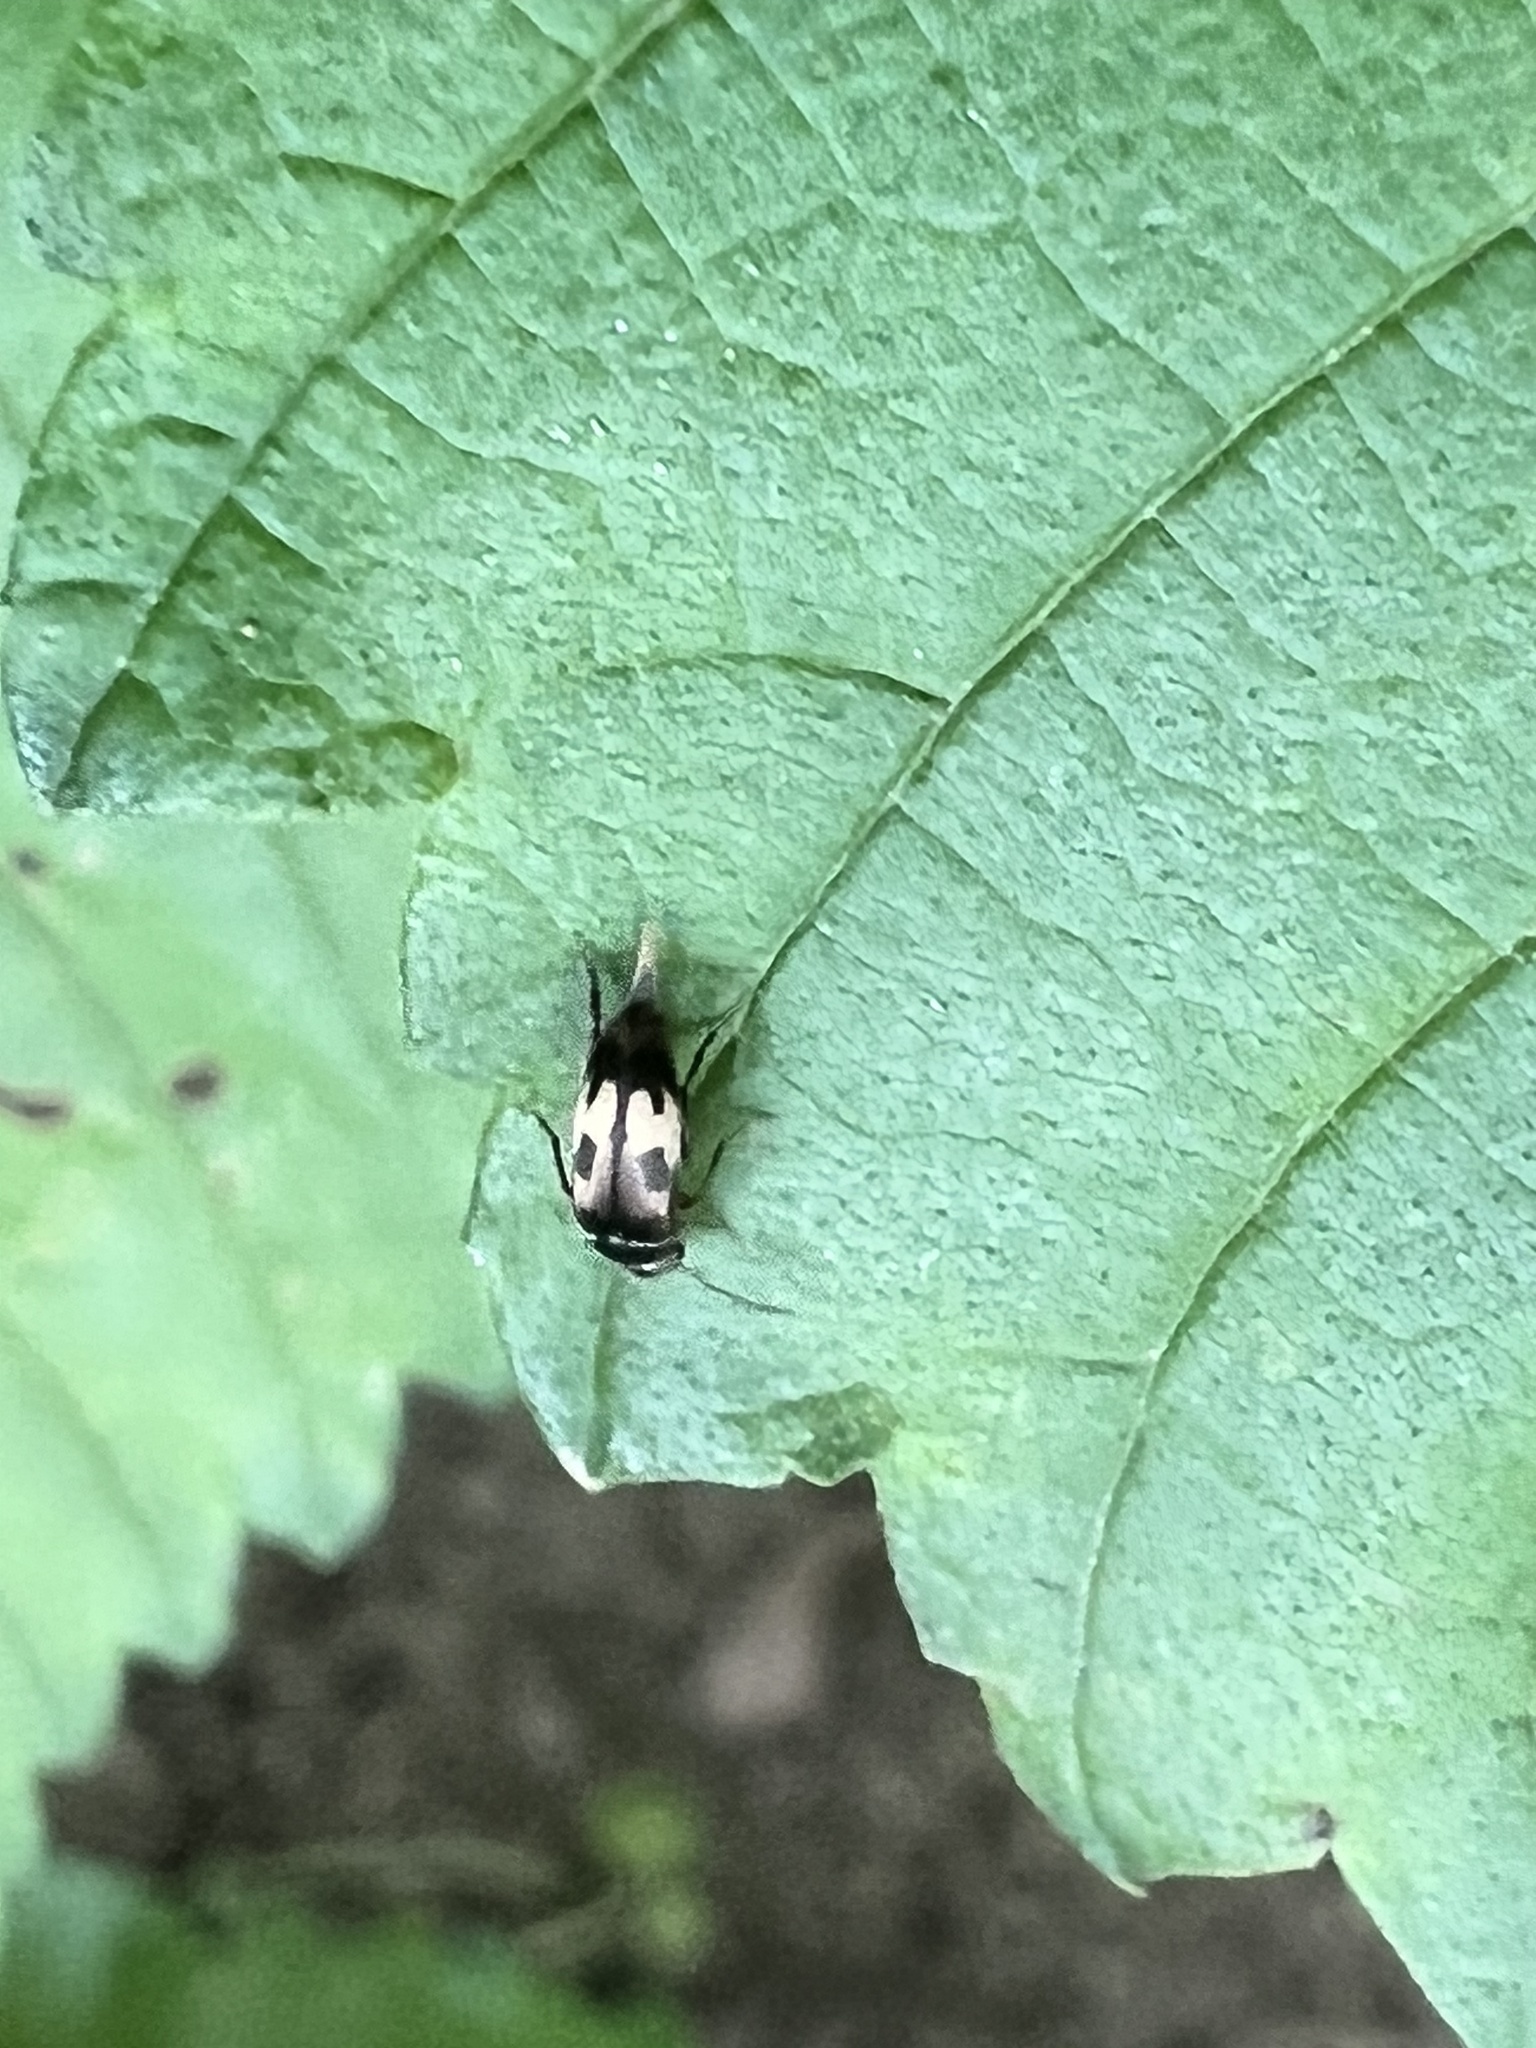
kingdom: Animalia
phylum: Arthropoda
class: Insecta
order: Coleoptera
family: Mordellidae
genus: Falsomordellistena
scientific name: Falsomordellistena bihamata
